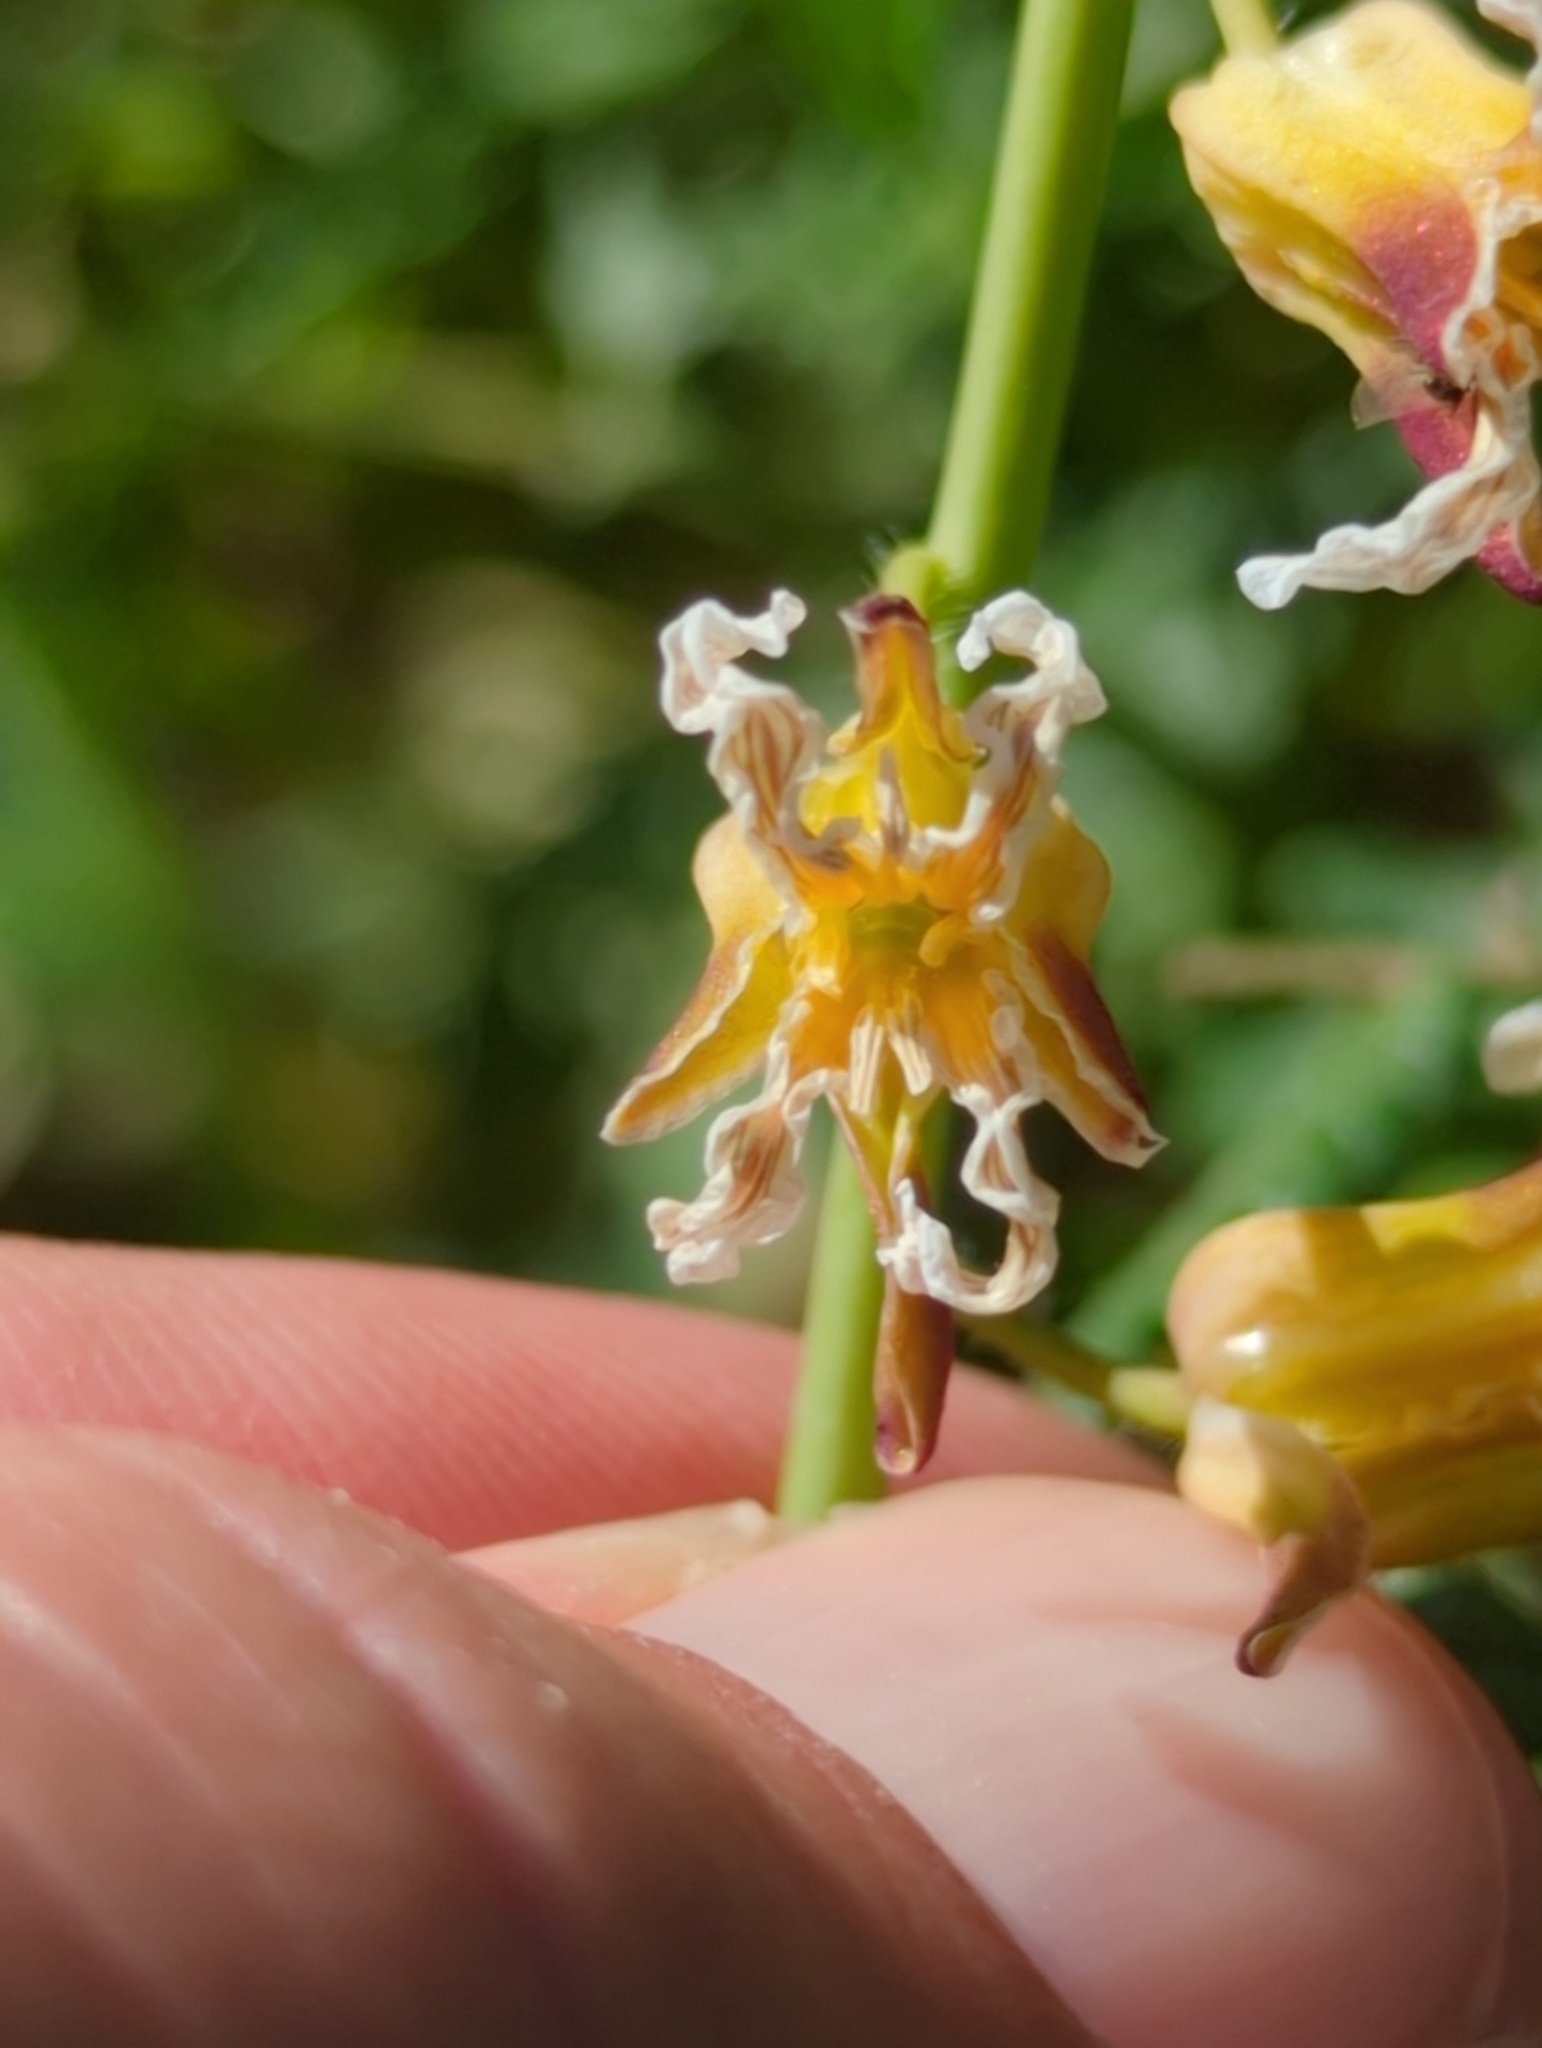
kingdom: Plantae
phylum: Tracheophyta
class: Magnoliopsida
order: Brassicales
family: Brassicaceae
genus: Streptanthus
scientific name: Streptanthus lemmonii
